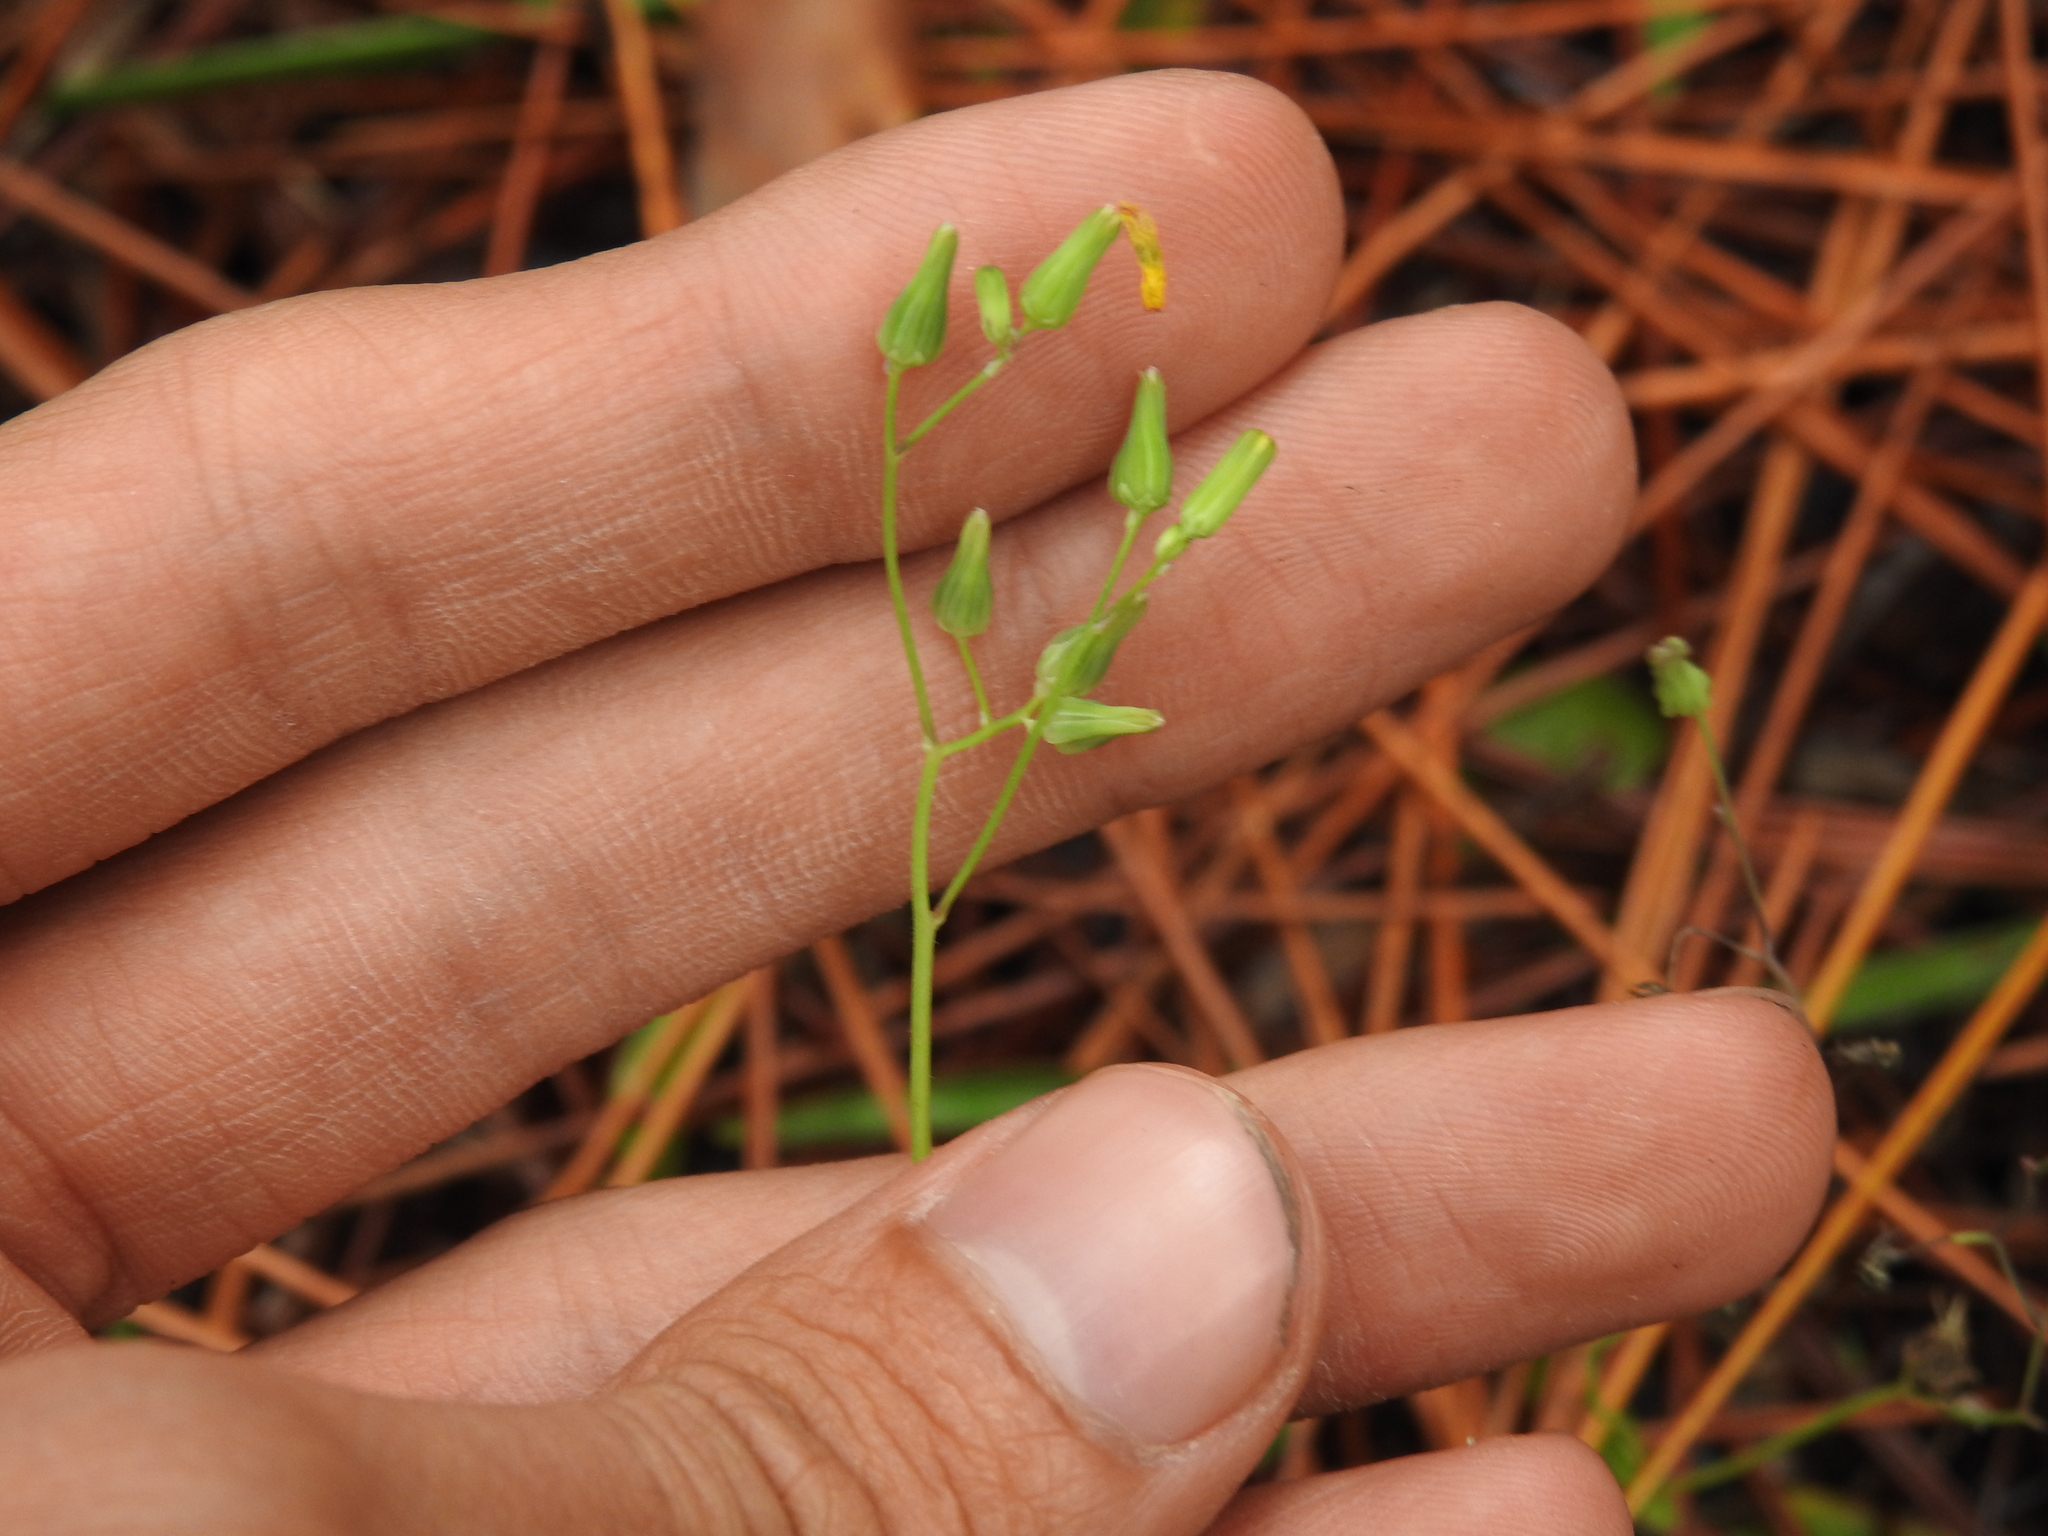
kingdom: Plantae
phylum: Tracheophyta
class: Magnoliopsida
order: Asterales
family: Asteraceae
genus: Youngia
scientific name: Youngia japonica
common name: Oriental false hawksbeard
